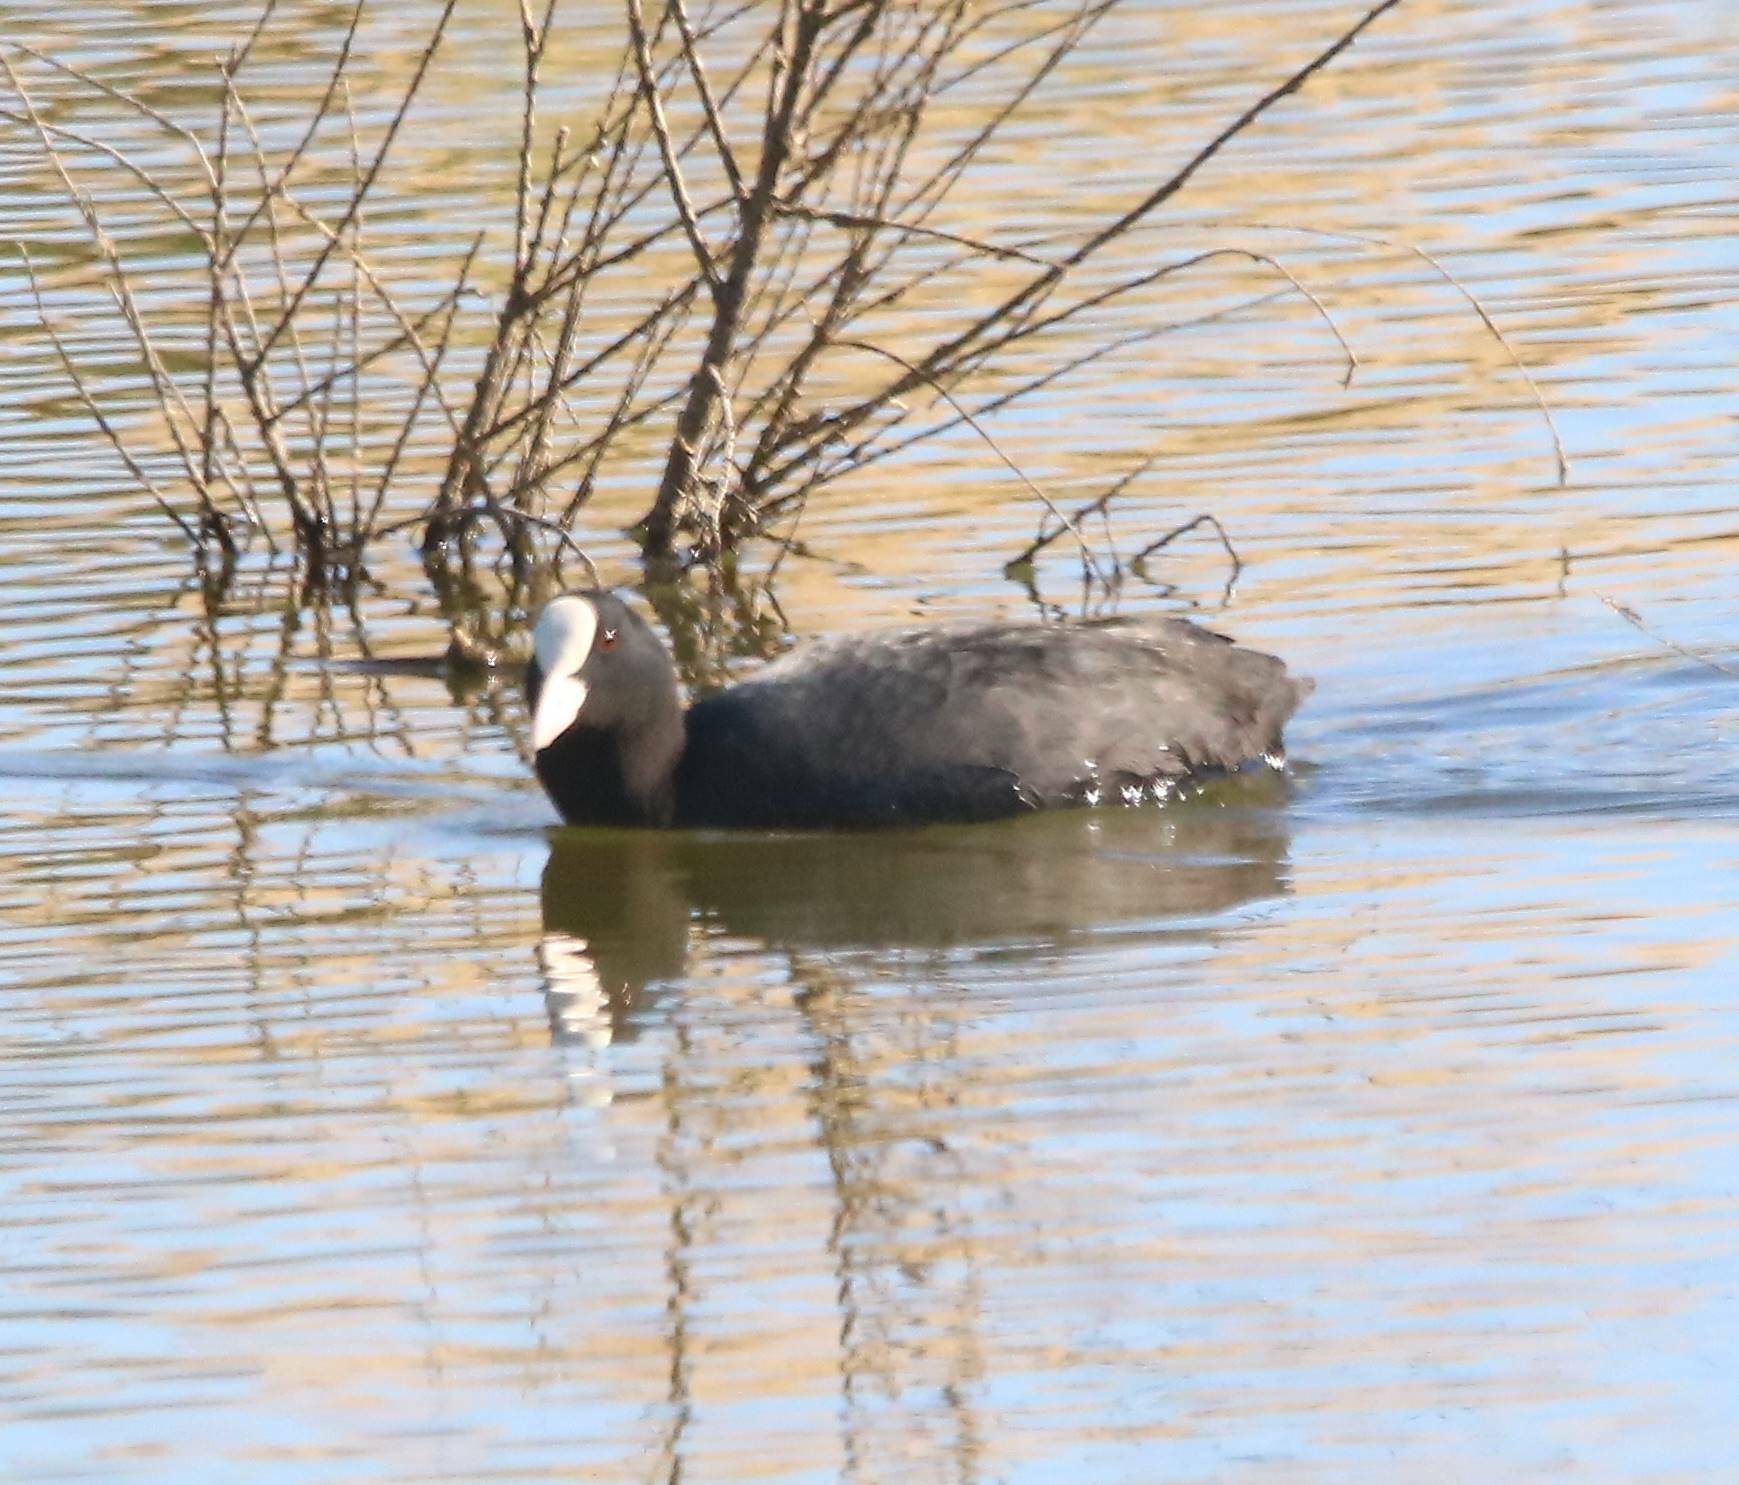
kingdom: Animalia
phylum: Chordata
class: Aves
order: Gruiformes
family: Rallidae
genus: Fulica
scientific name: Fulica atra
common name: Eurasian coot
